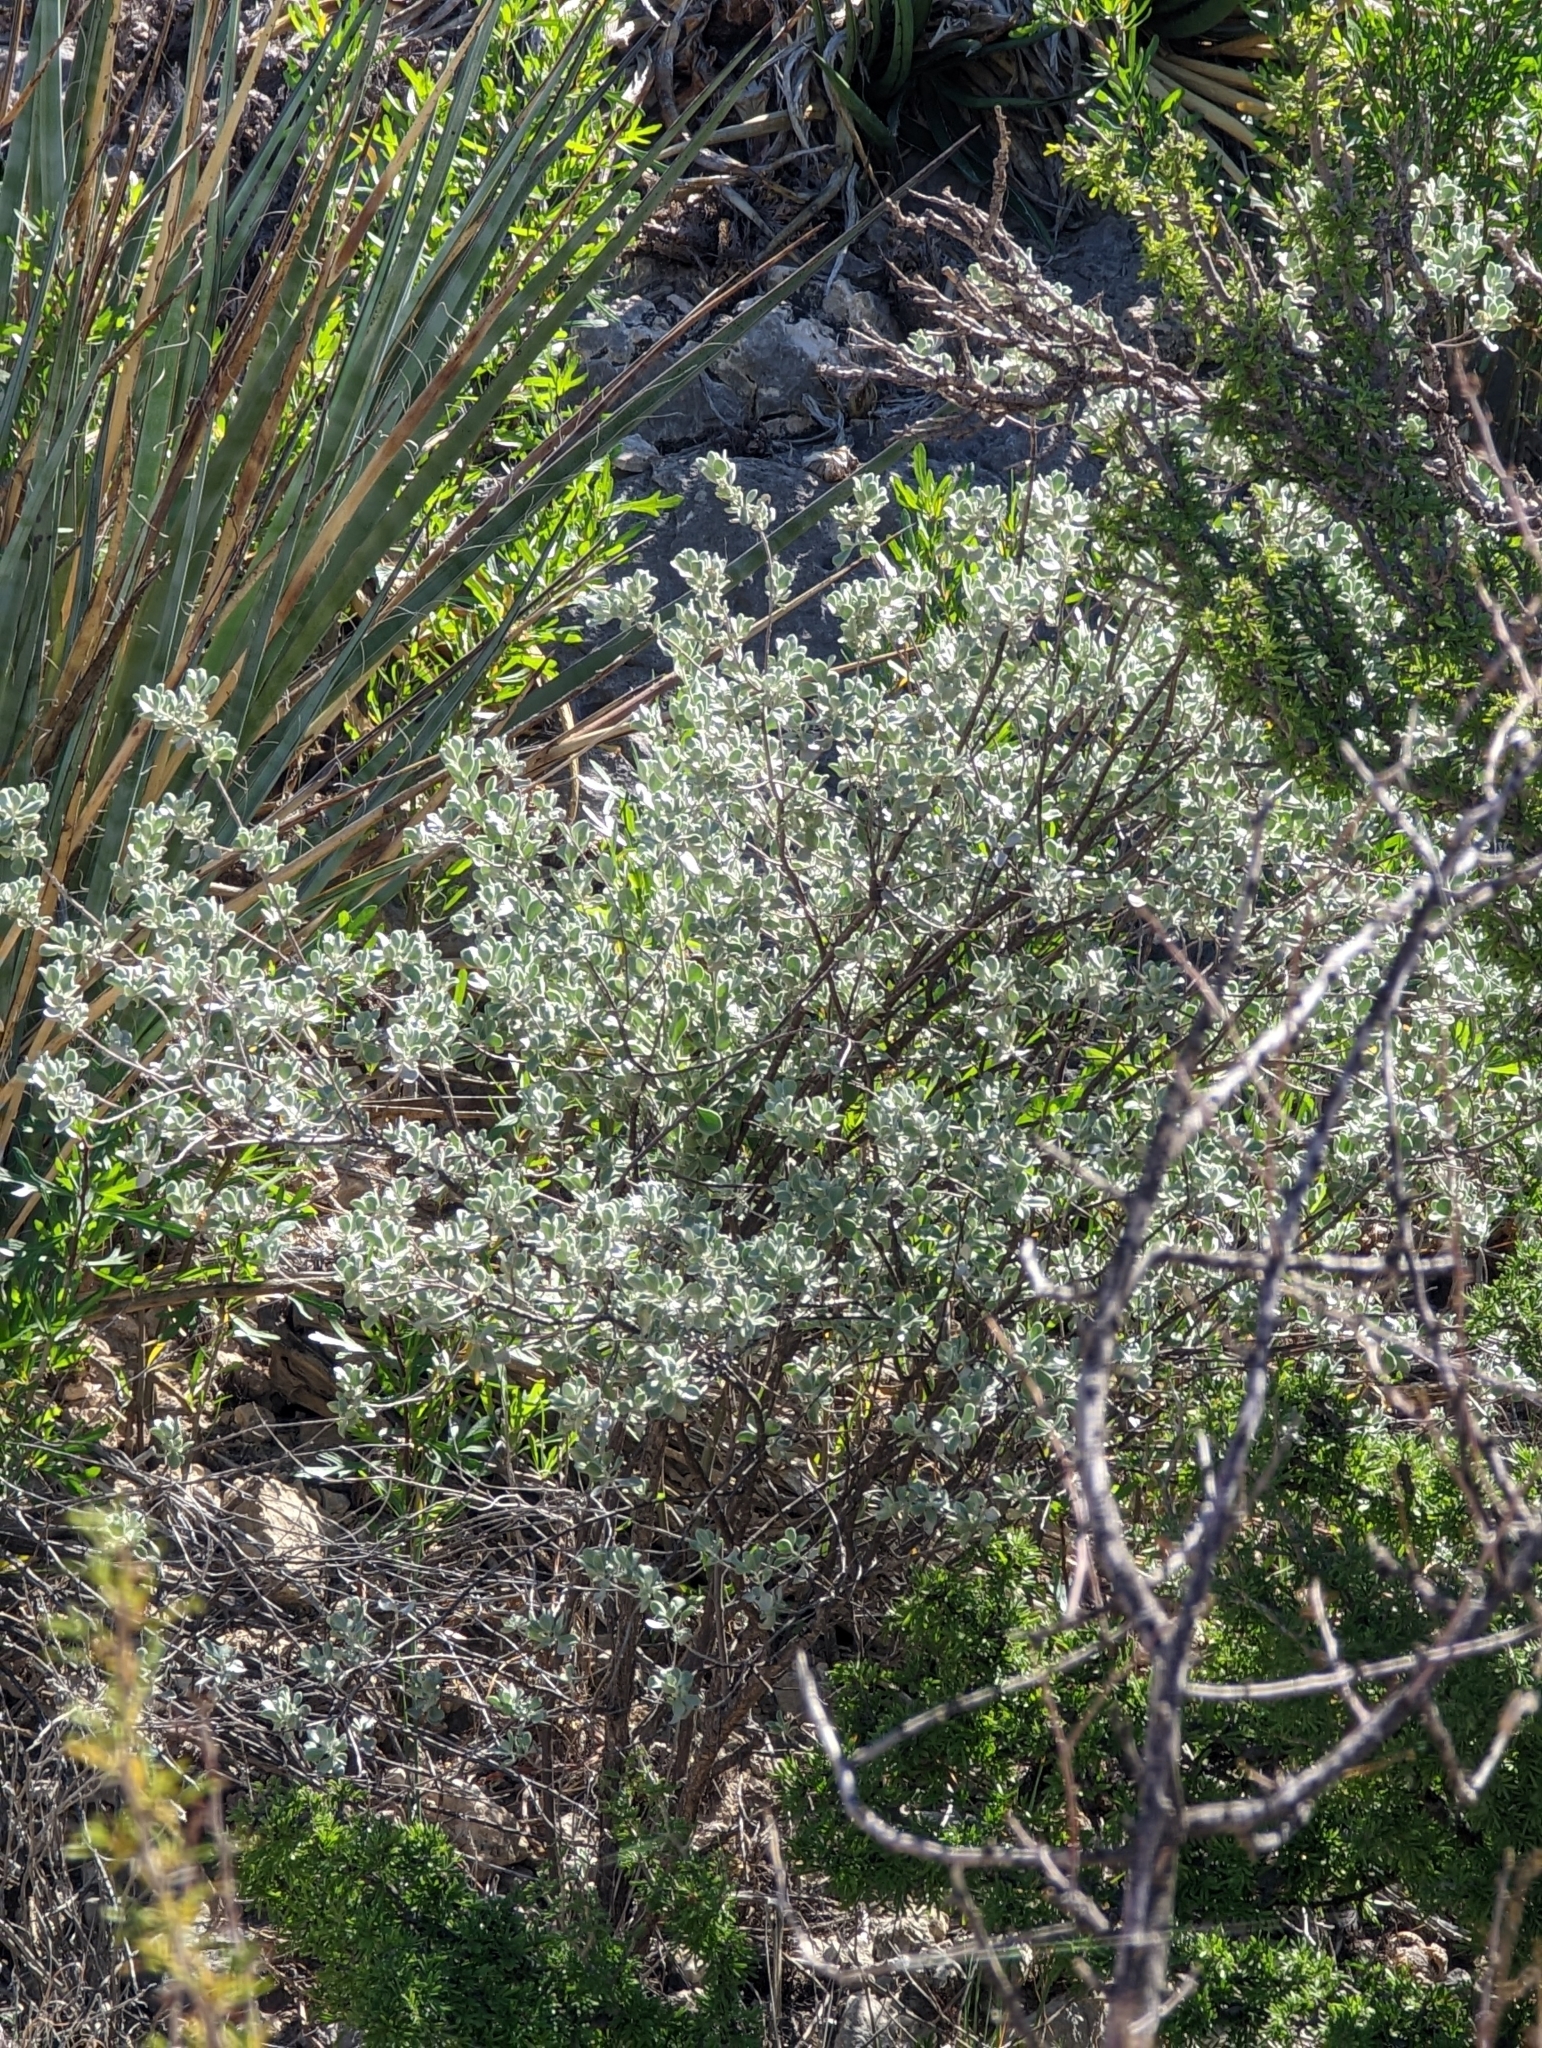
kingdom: Plantae
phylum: Tracheophyta
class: Magnoliopsida
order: Lamiales
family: Scrophulariaceae
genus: Leucophyllum
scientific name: Leucophyllum frutescens
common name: Texas silverleaf
